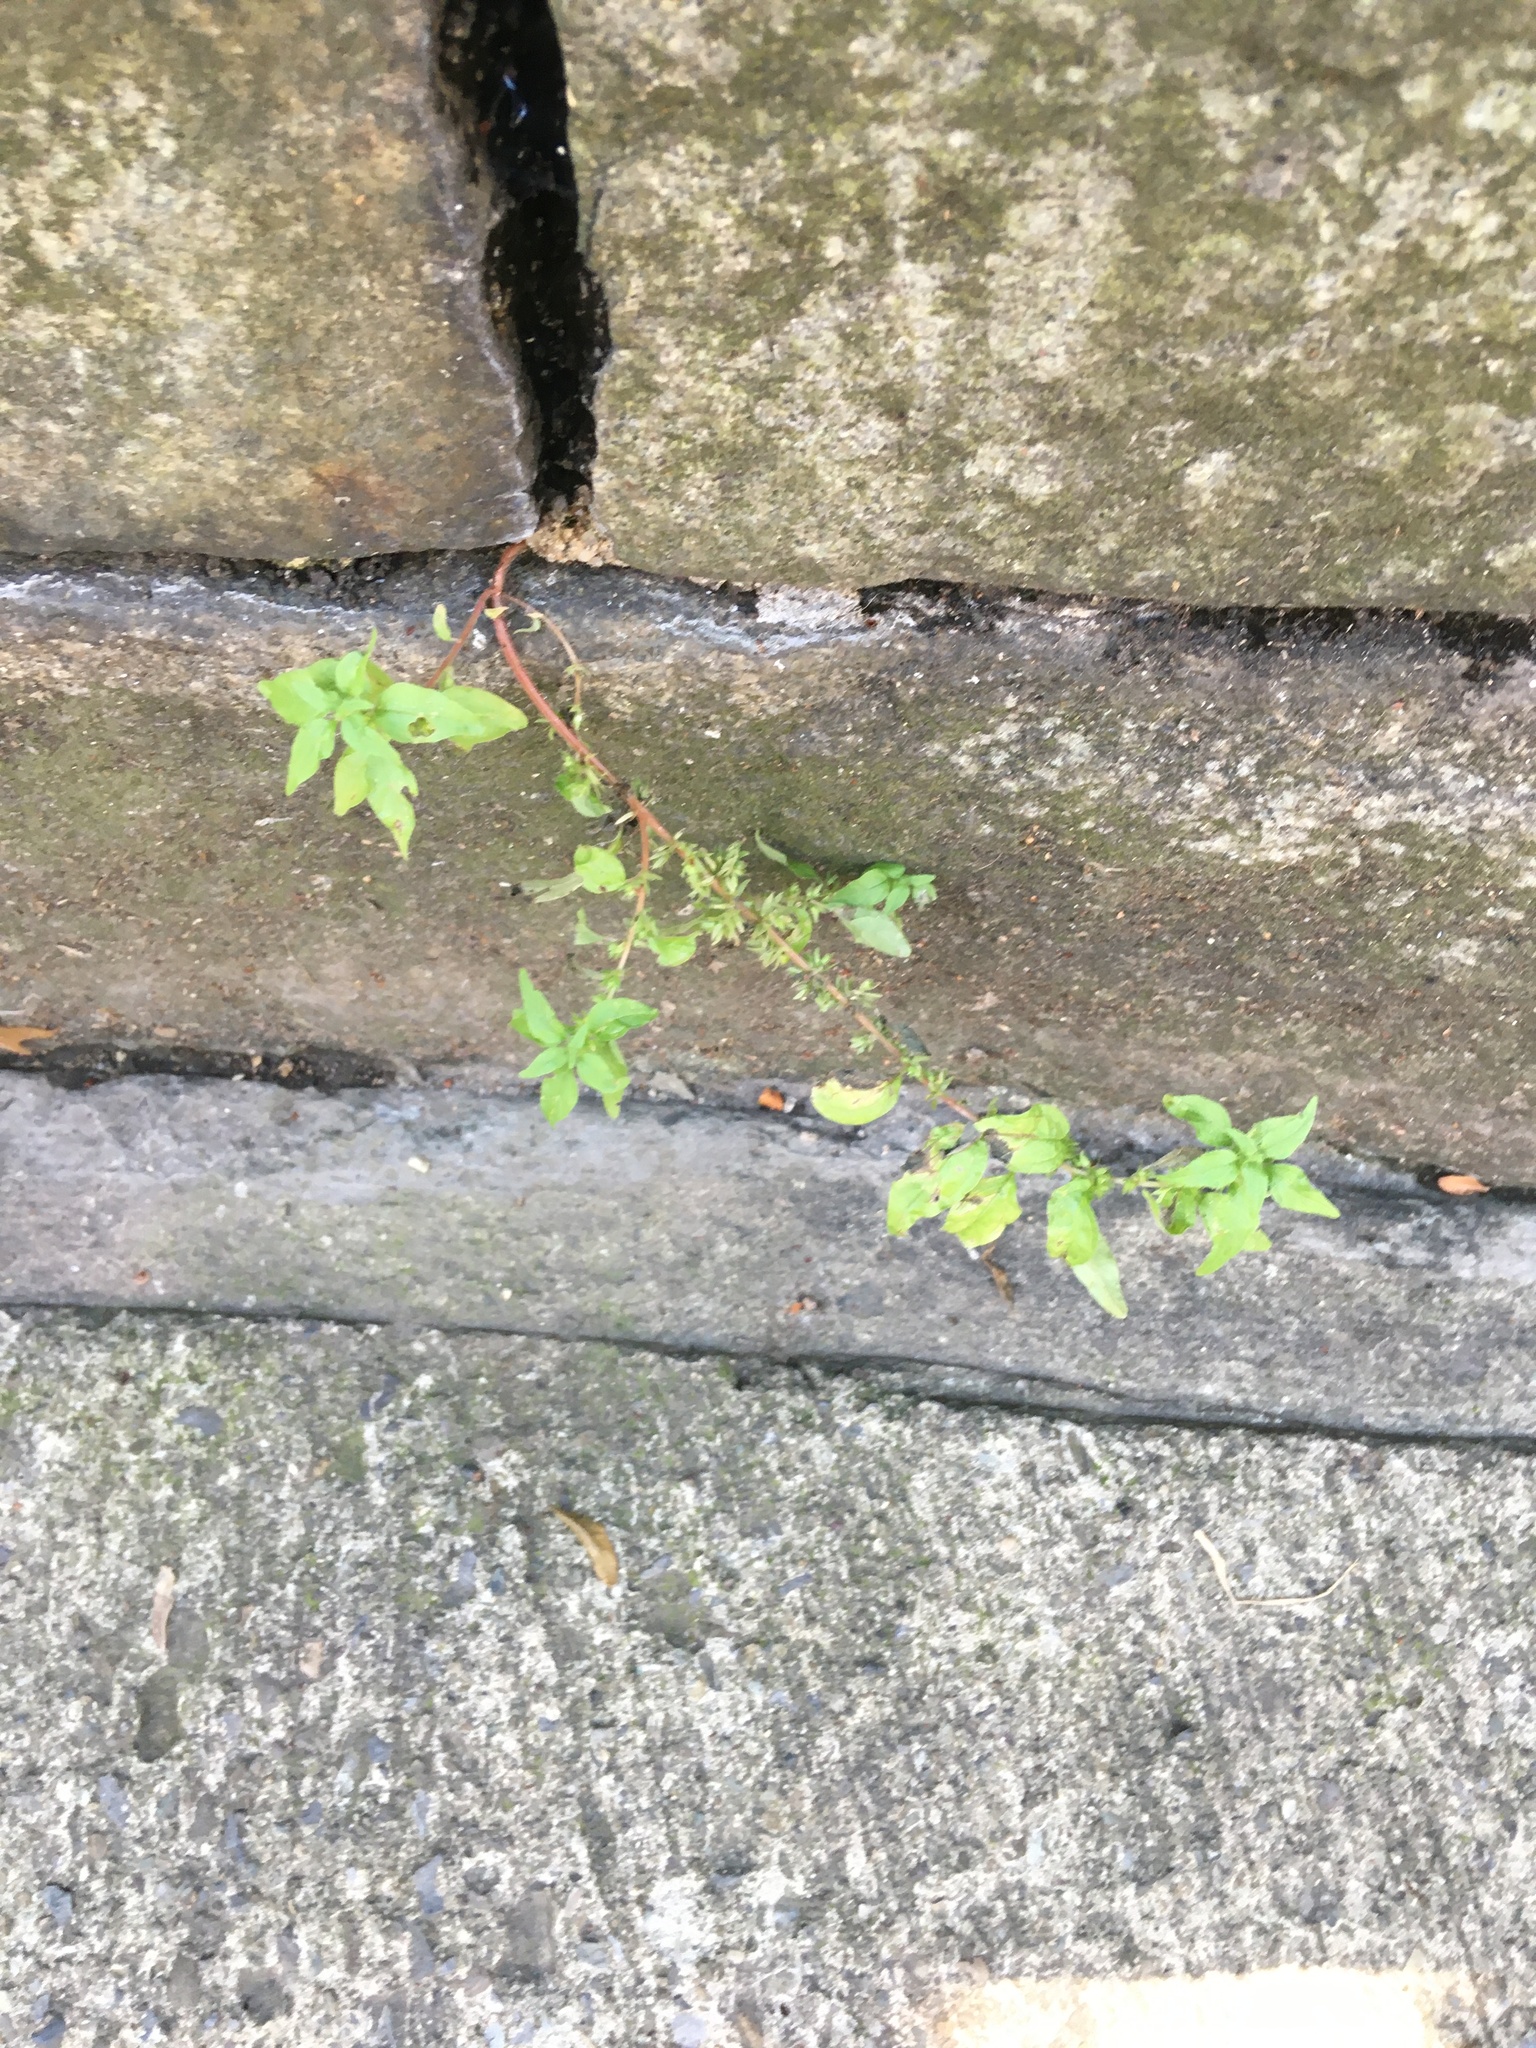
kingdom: Plantae
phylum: Tracheophyta
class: Magnoliopsida
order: Rosales
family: Urticaceae
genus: Parietaria
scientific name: Parietaria pensylvanica
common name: Pennsylvania pellitory
